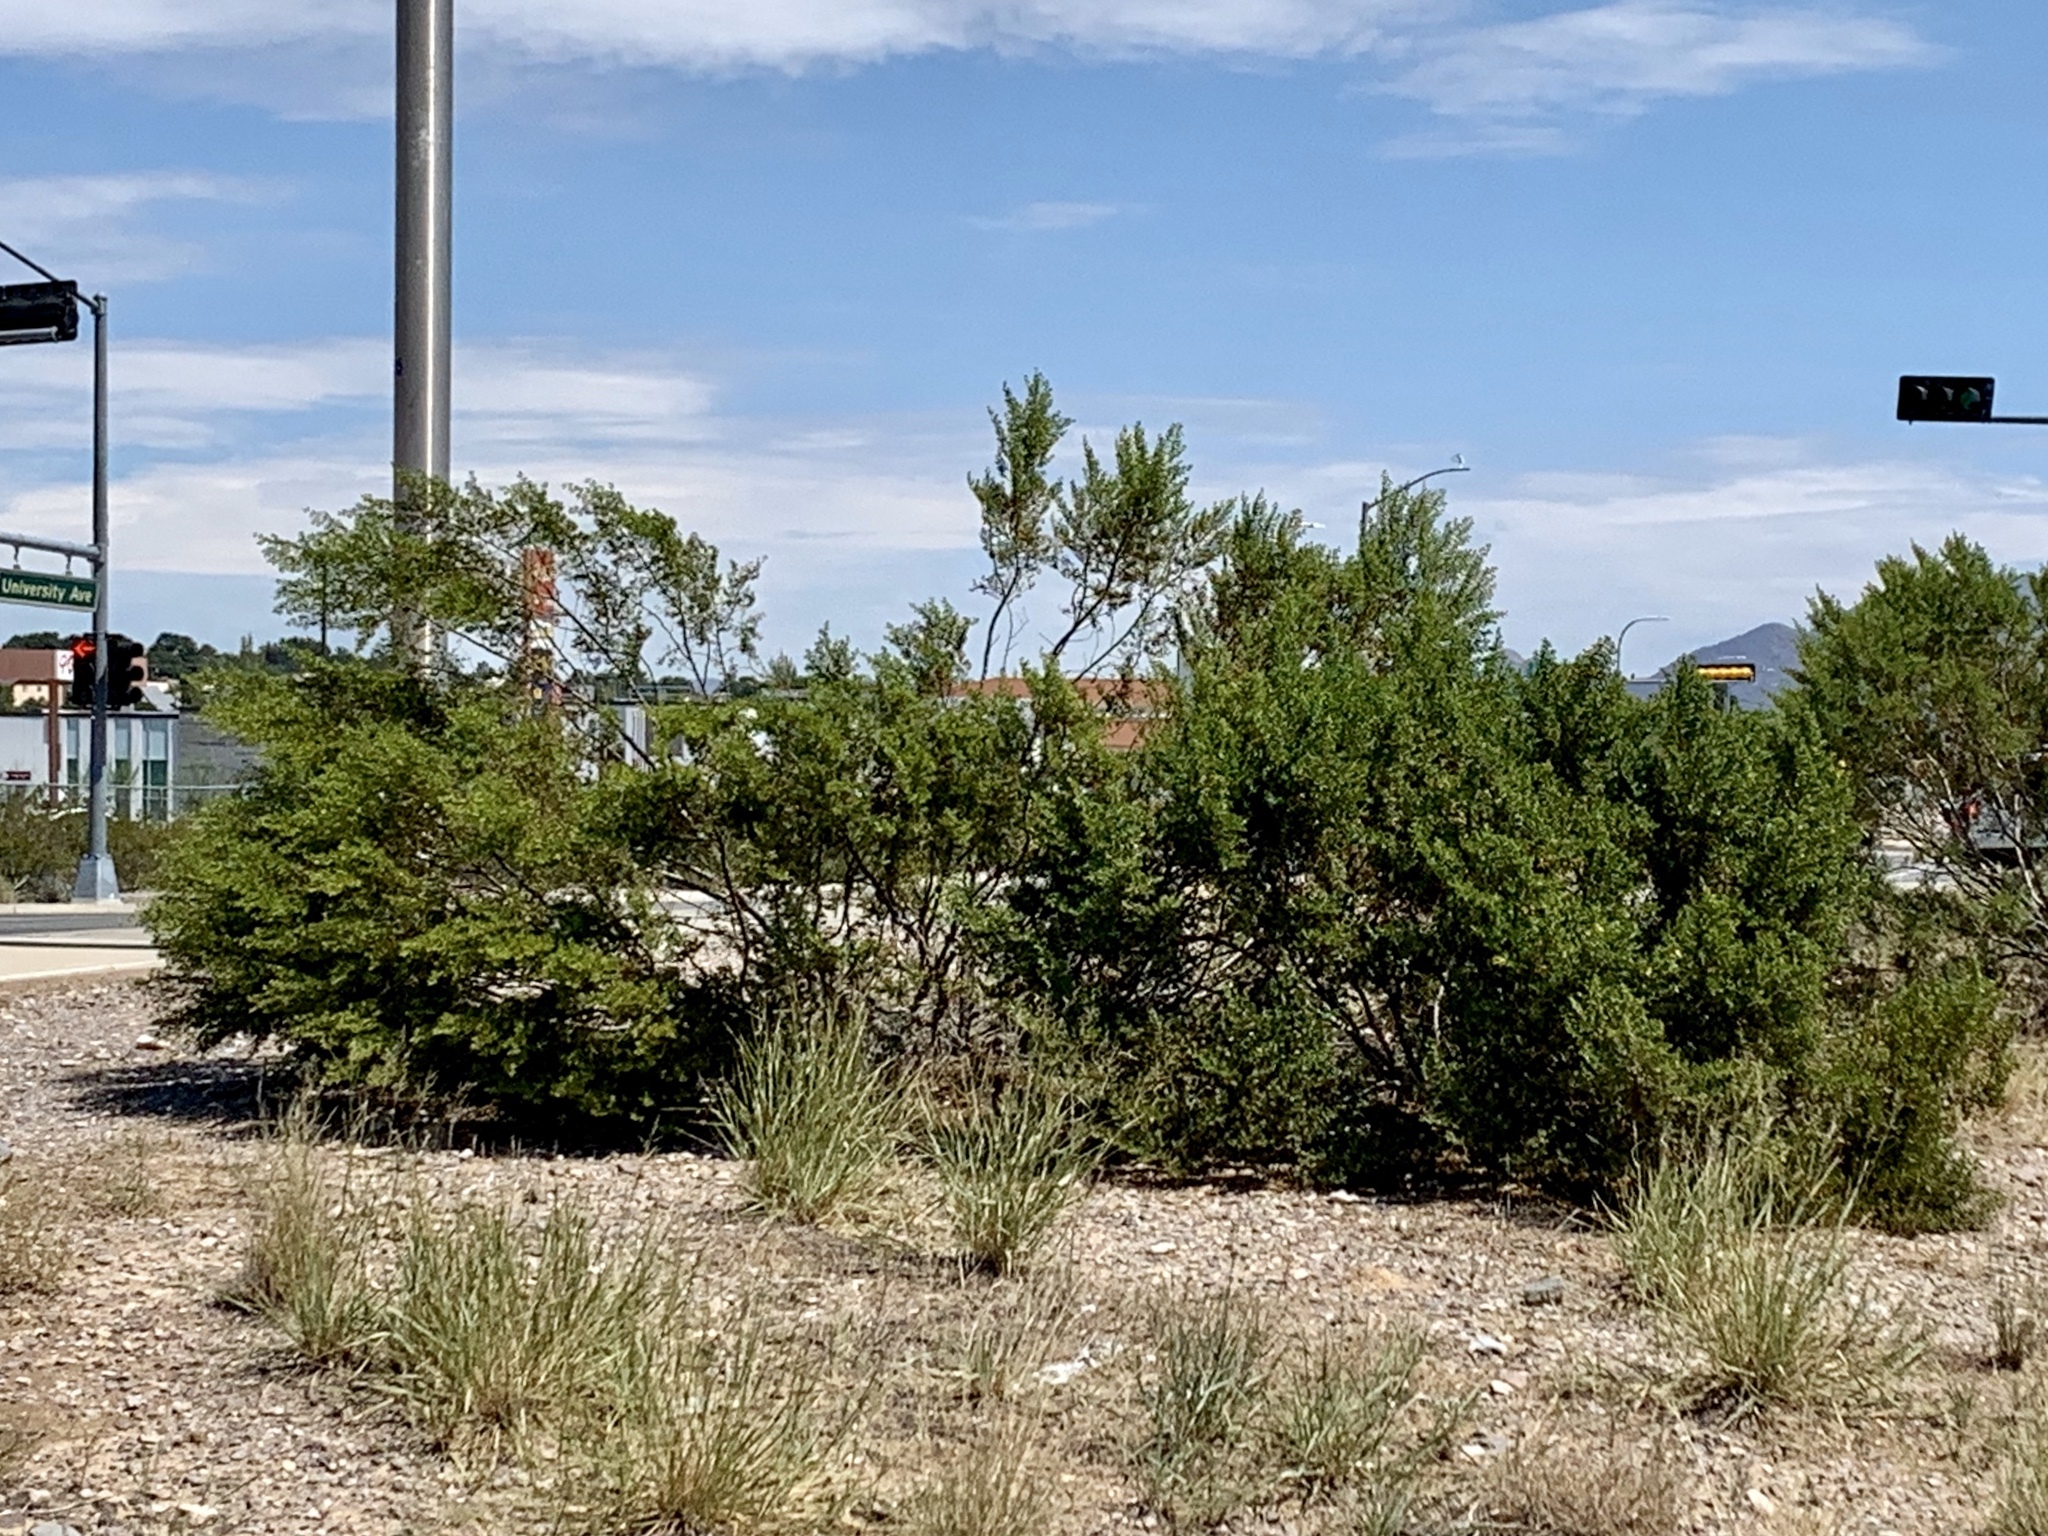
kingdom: Plantae
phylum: Tracheophyta
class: Magnoliopsida
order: Zygophyllales
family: Zygophyllaceae
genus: Larrea
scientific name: Larrea tridentata
